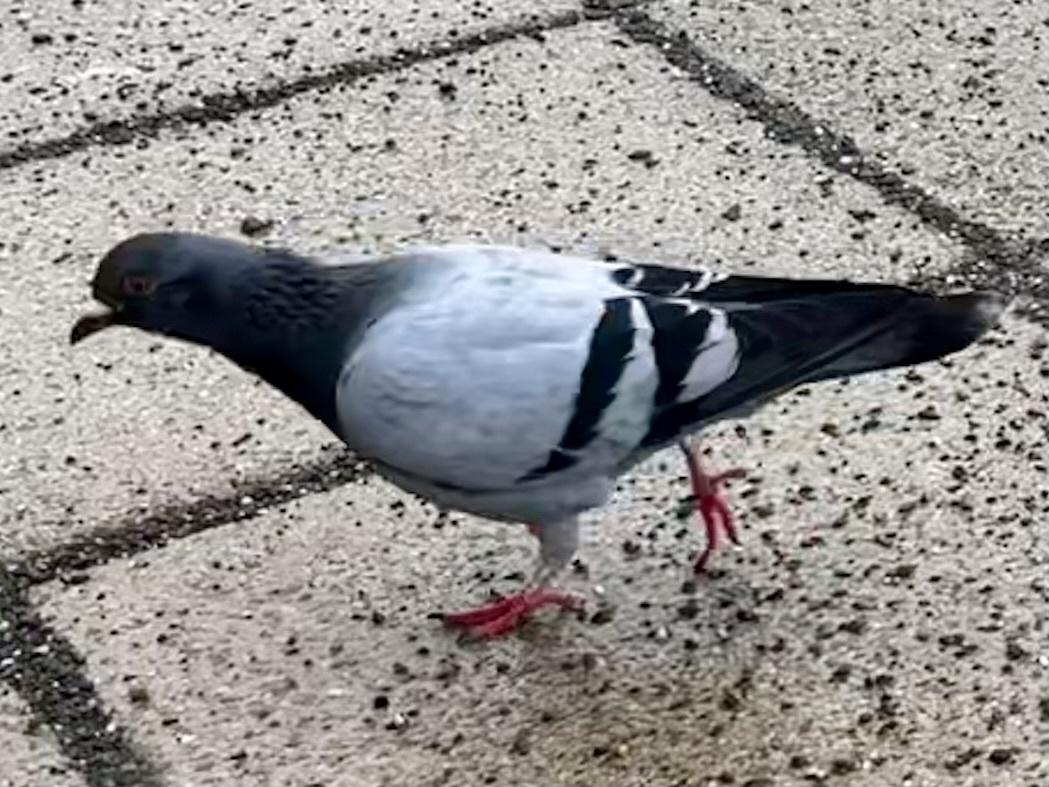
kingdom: Animalia
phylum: Chordata
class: Aves
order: Columbiformes
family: Columbidae
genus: Columba
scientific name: Columba livia
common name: Rock pigeon
